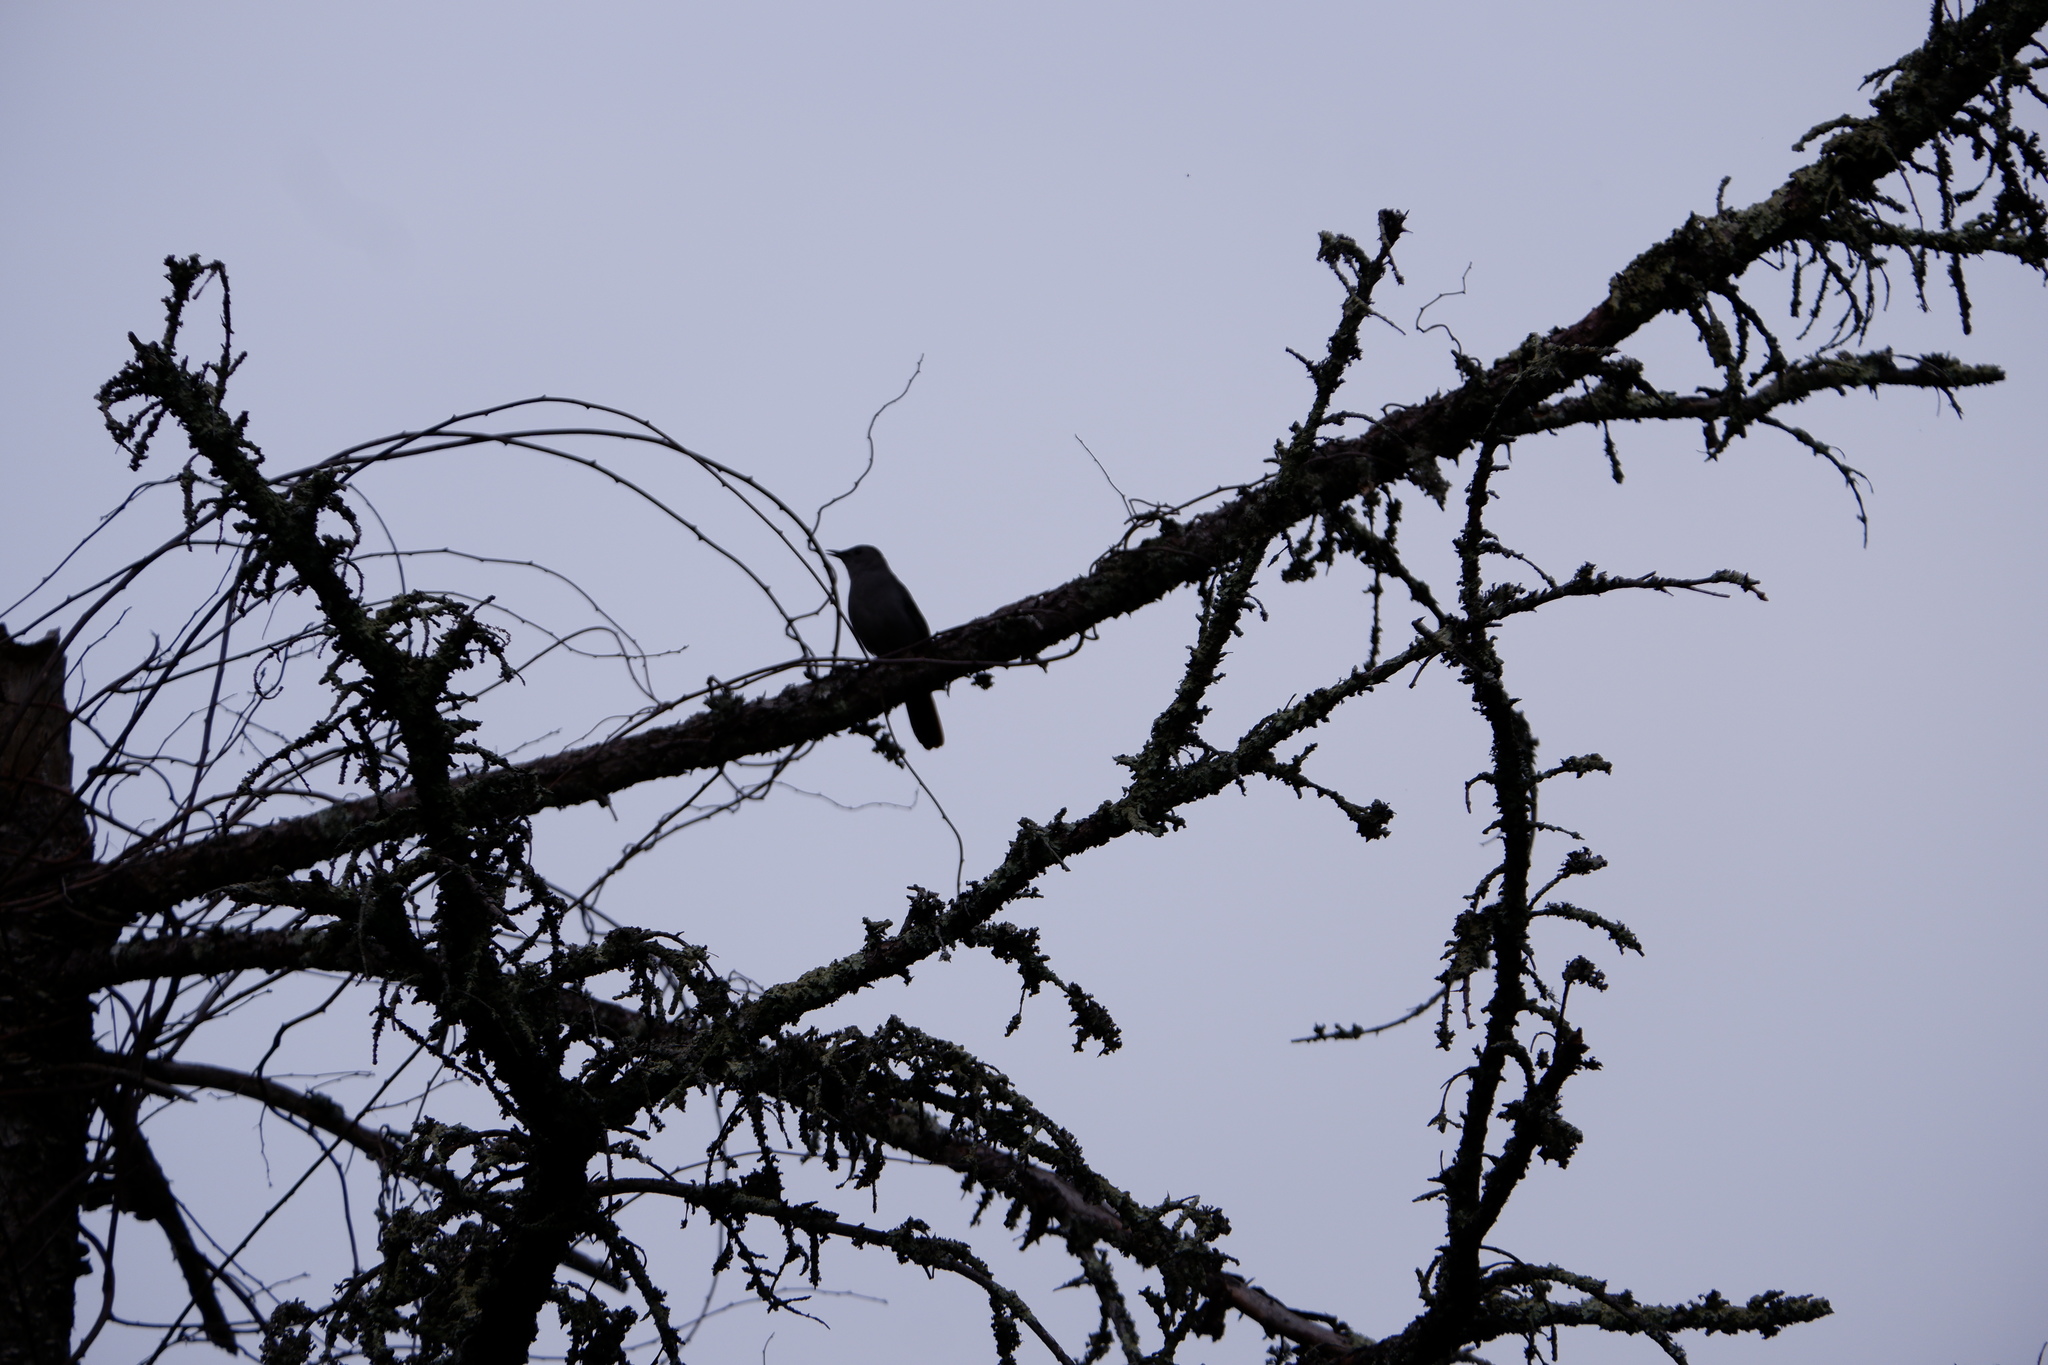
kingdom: Animalia
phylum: Chordata
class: Aves
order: Passeriformes
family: Mimidae
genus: Dumetella
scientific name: Dumetella carolinensis
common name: Gray catbird
